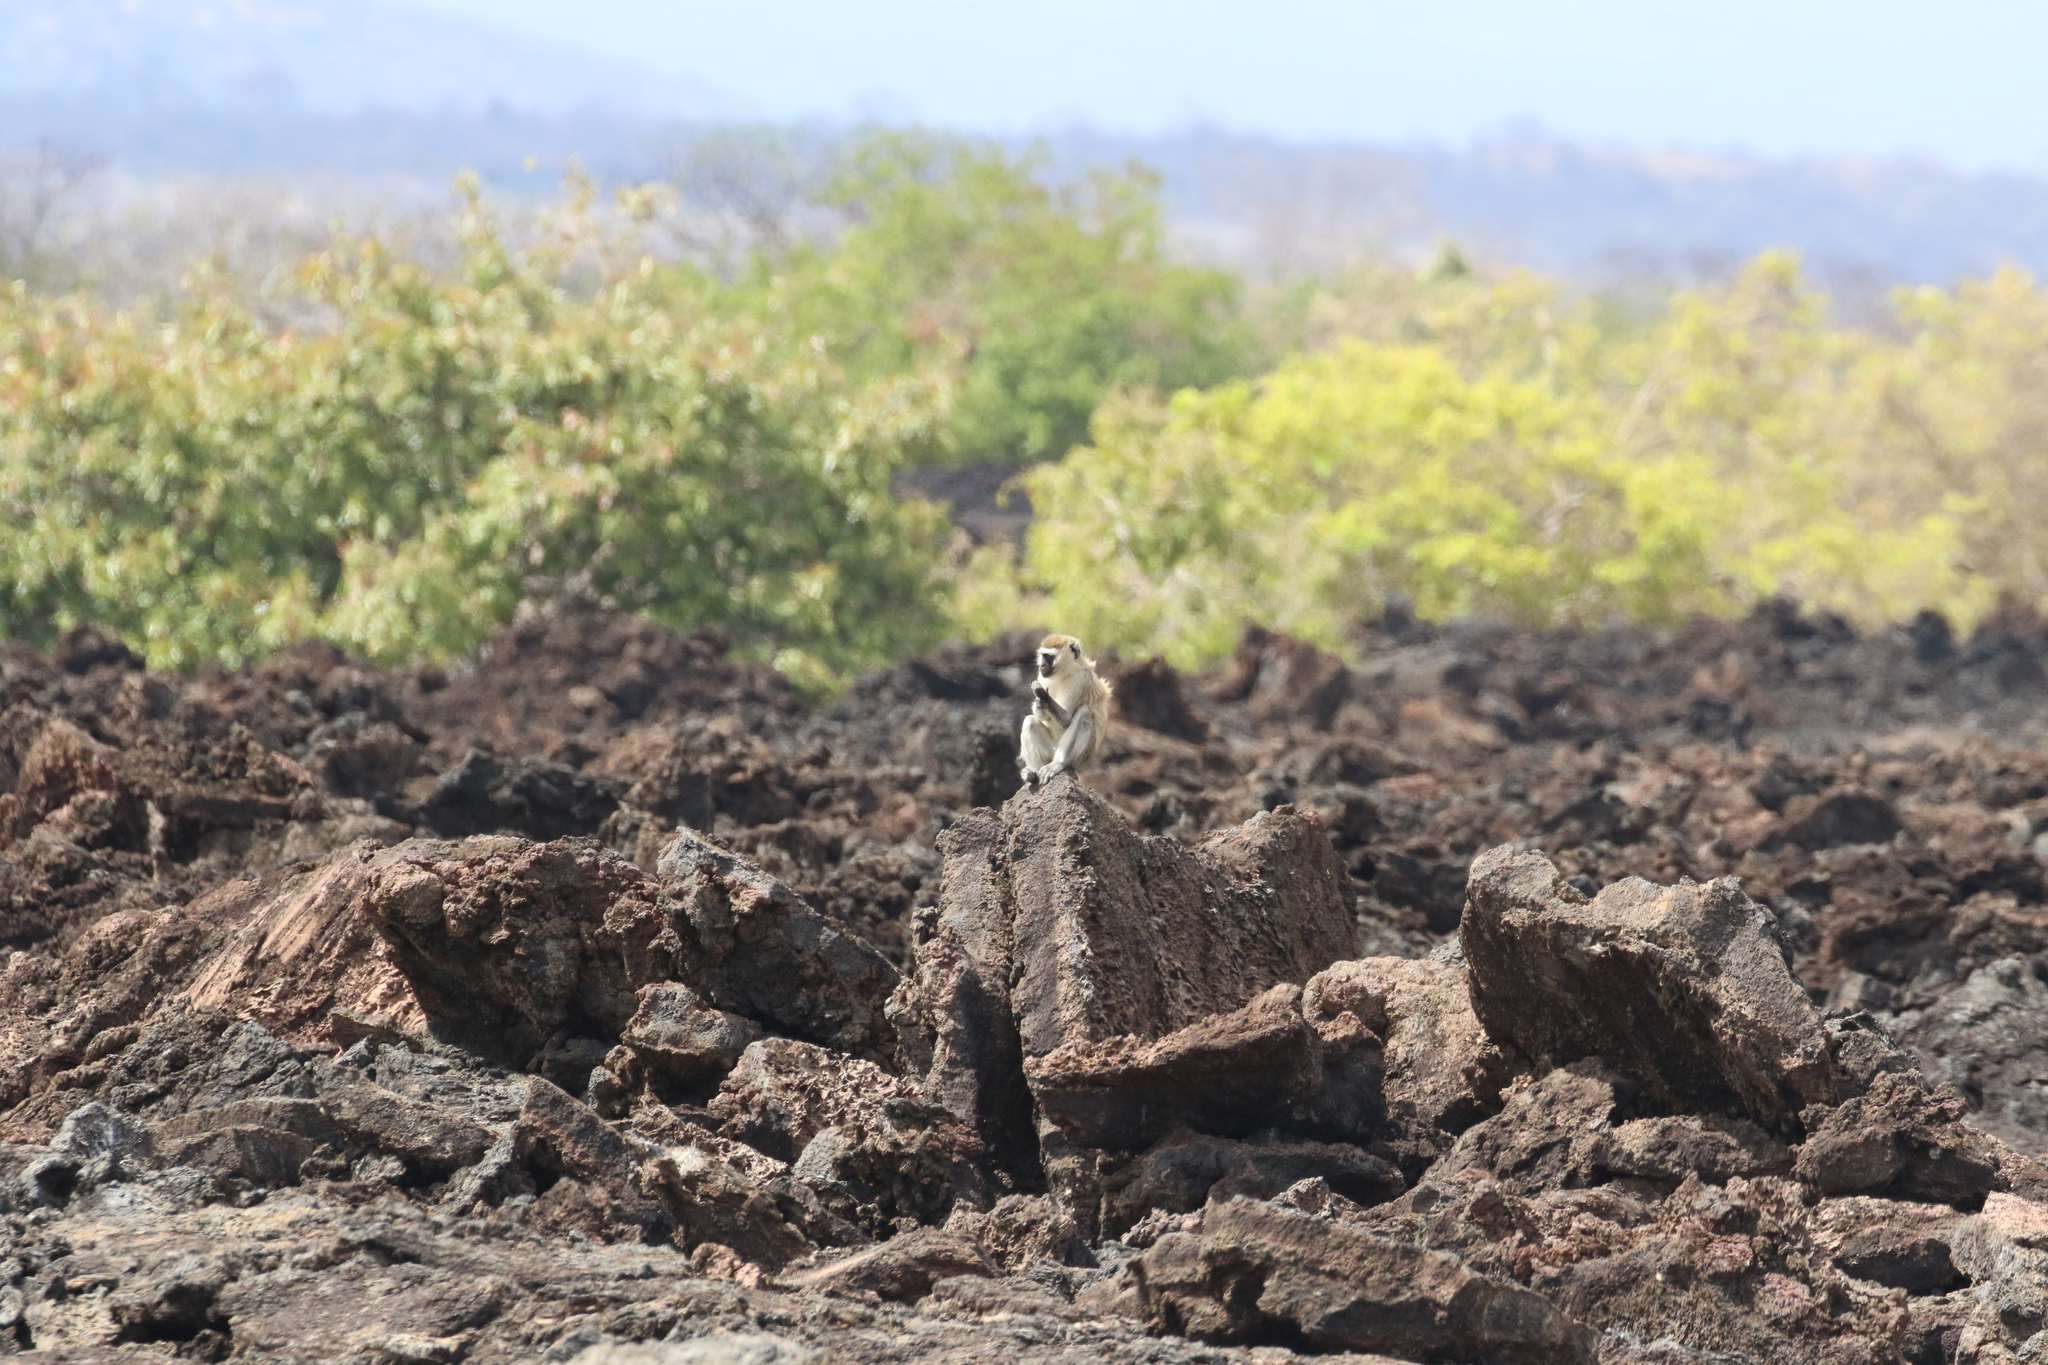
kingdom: Animalia
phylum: Chordata
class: Mammalia
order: Primates
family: Cercopithecidae
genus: Chlorocebus
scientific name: Chlorocebus pygerythrus
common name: Vervet monkey
